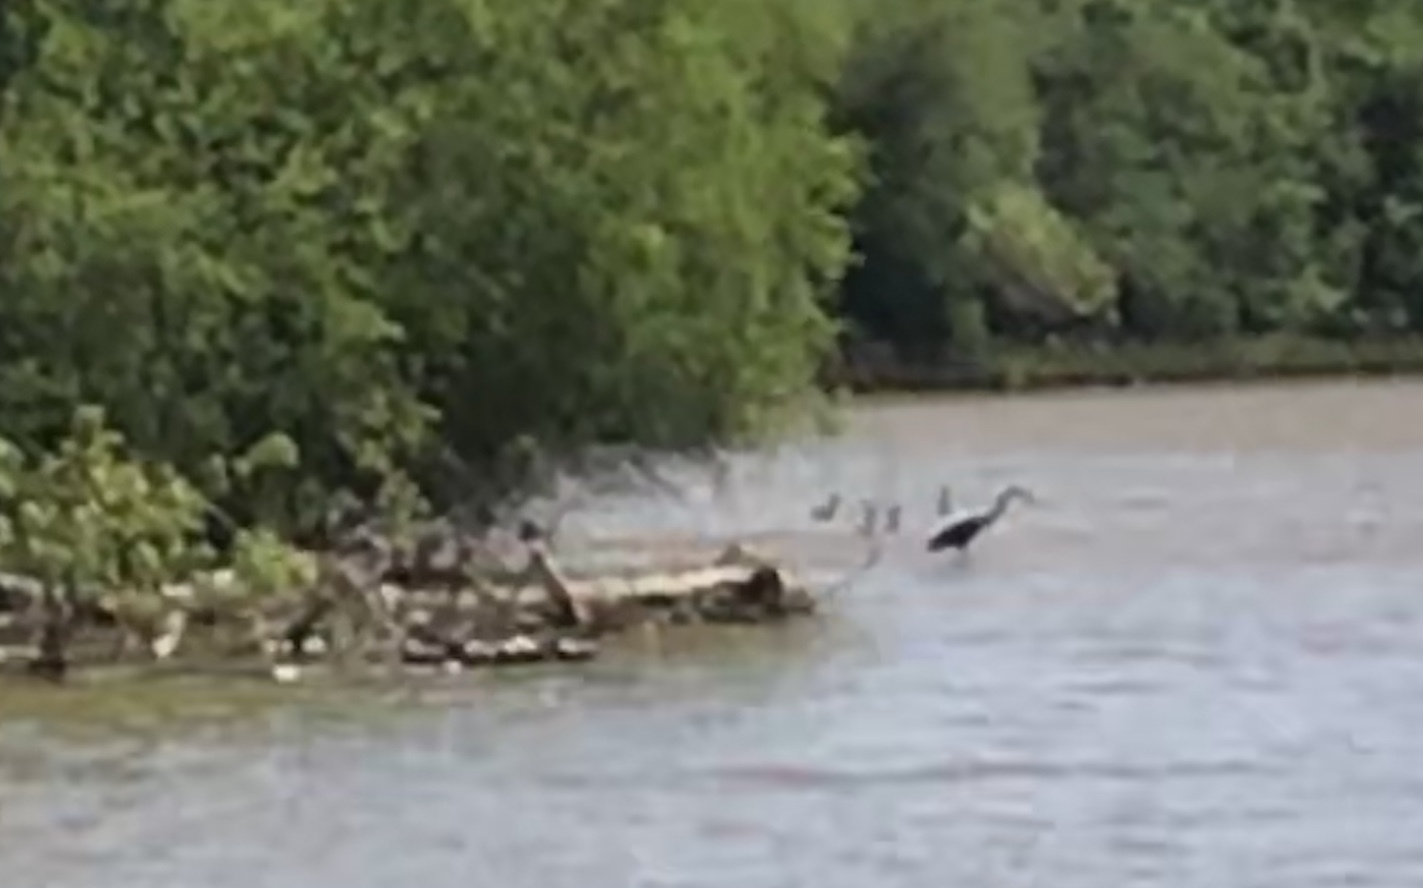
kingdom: Animalia
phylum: Chordata
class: Aves
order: Pelecaniformes
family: Ardeidae
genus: Ardea
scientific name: Ardea herodias
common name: Great blue heron
